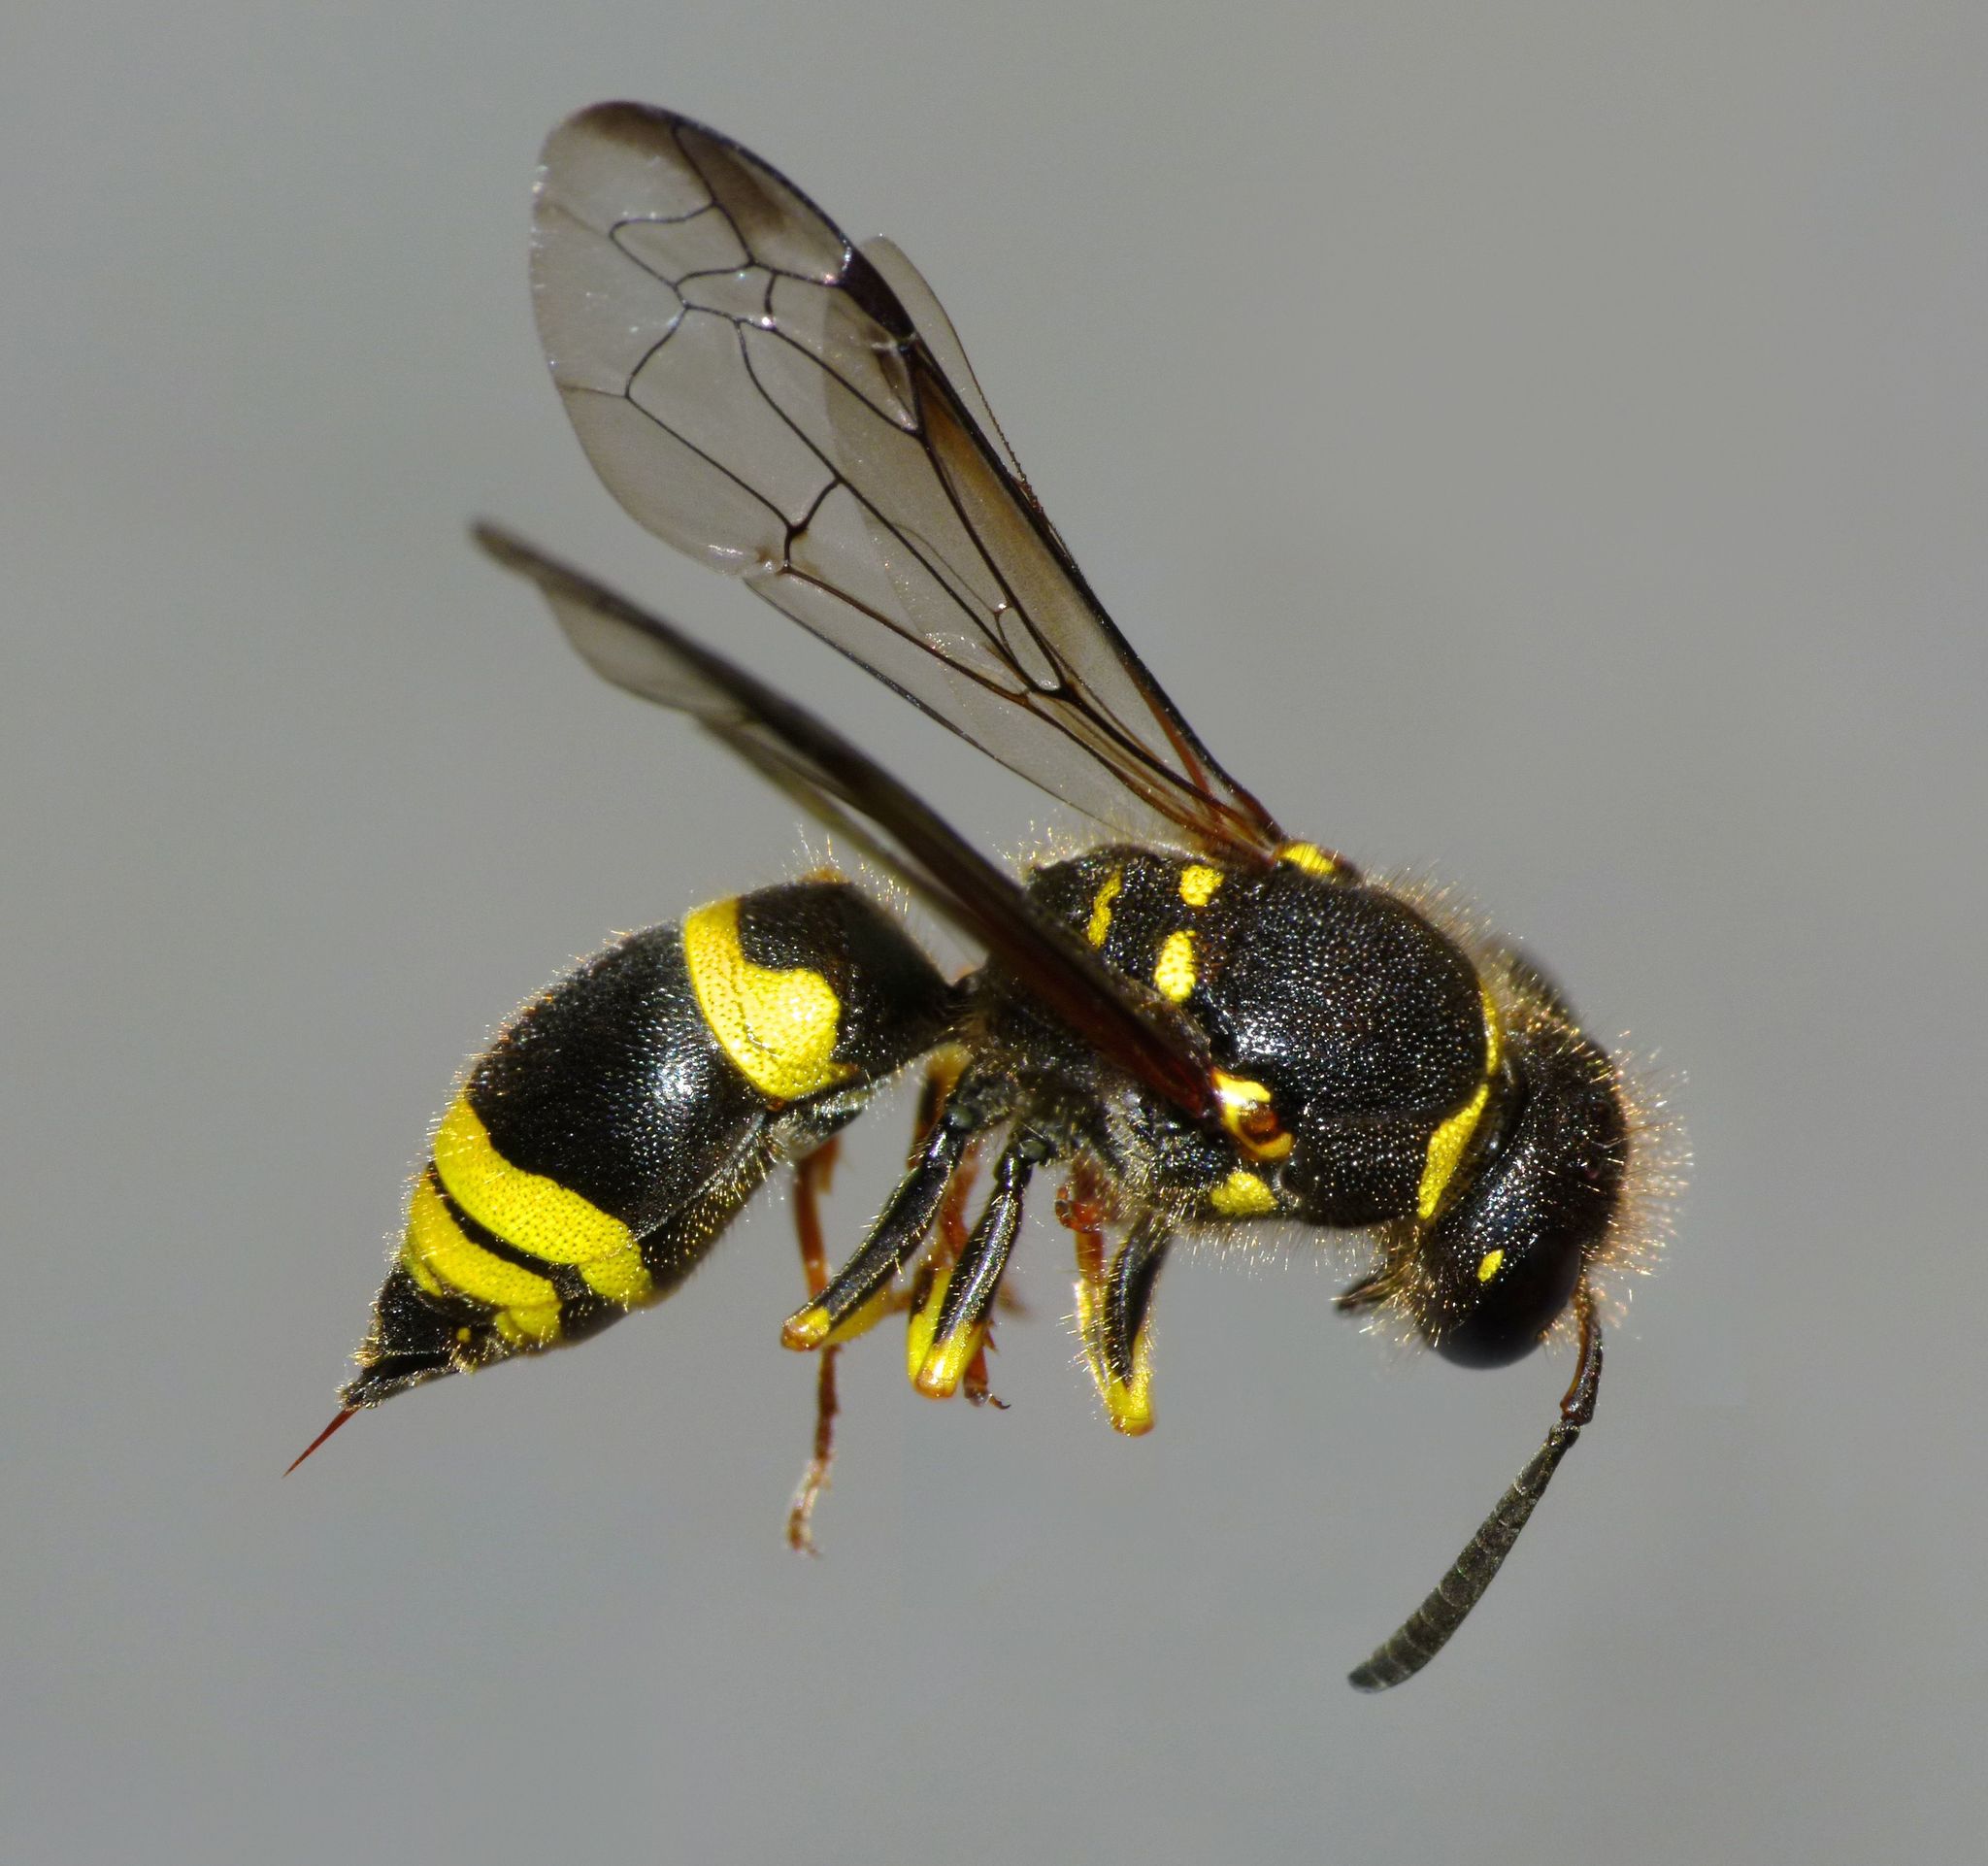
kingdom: Animalia
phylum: Arthropoda
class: Insecta
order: Hymenoptera
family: Vespidae
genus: Ancistrocerus
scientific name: Ancistrocerus gazella
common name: European tube wasp
